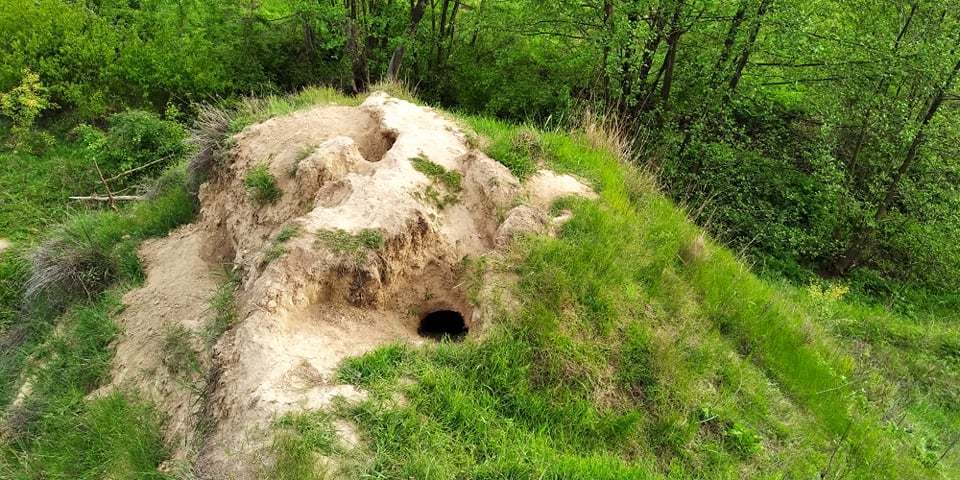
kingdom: Animalia
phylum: Chordata
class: Mammalia
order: Rodentia
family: Sciuridae
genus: Marmota
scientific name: Marmota bobak
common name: Bobak marmot
